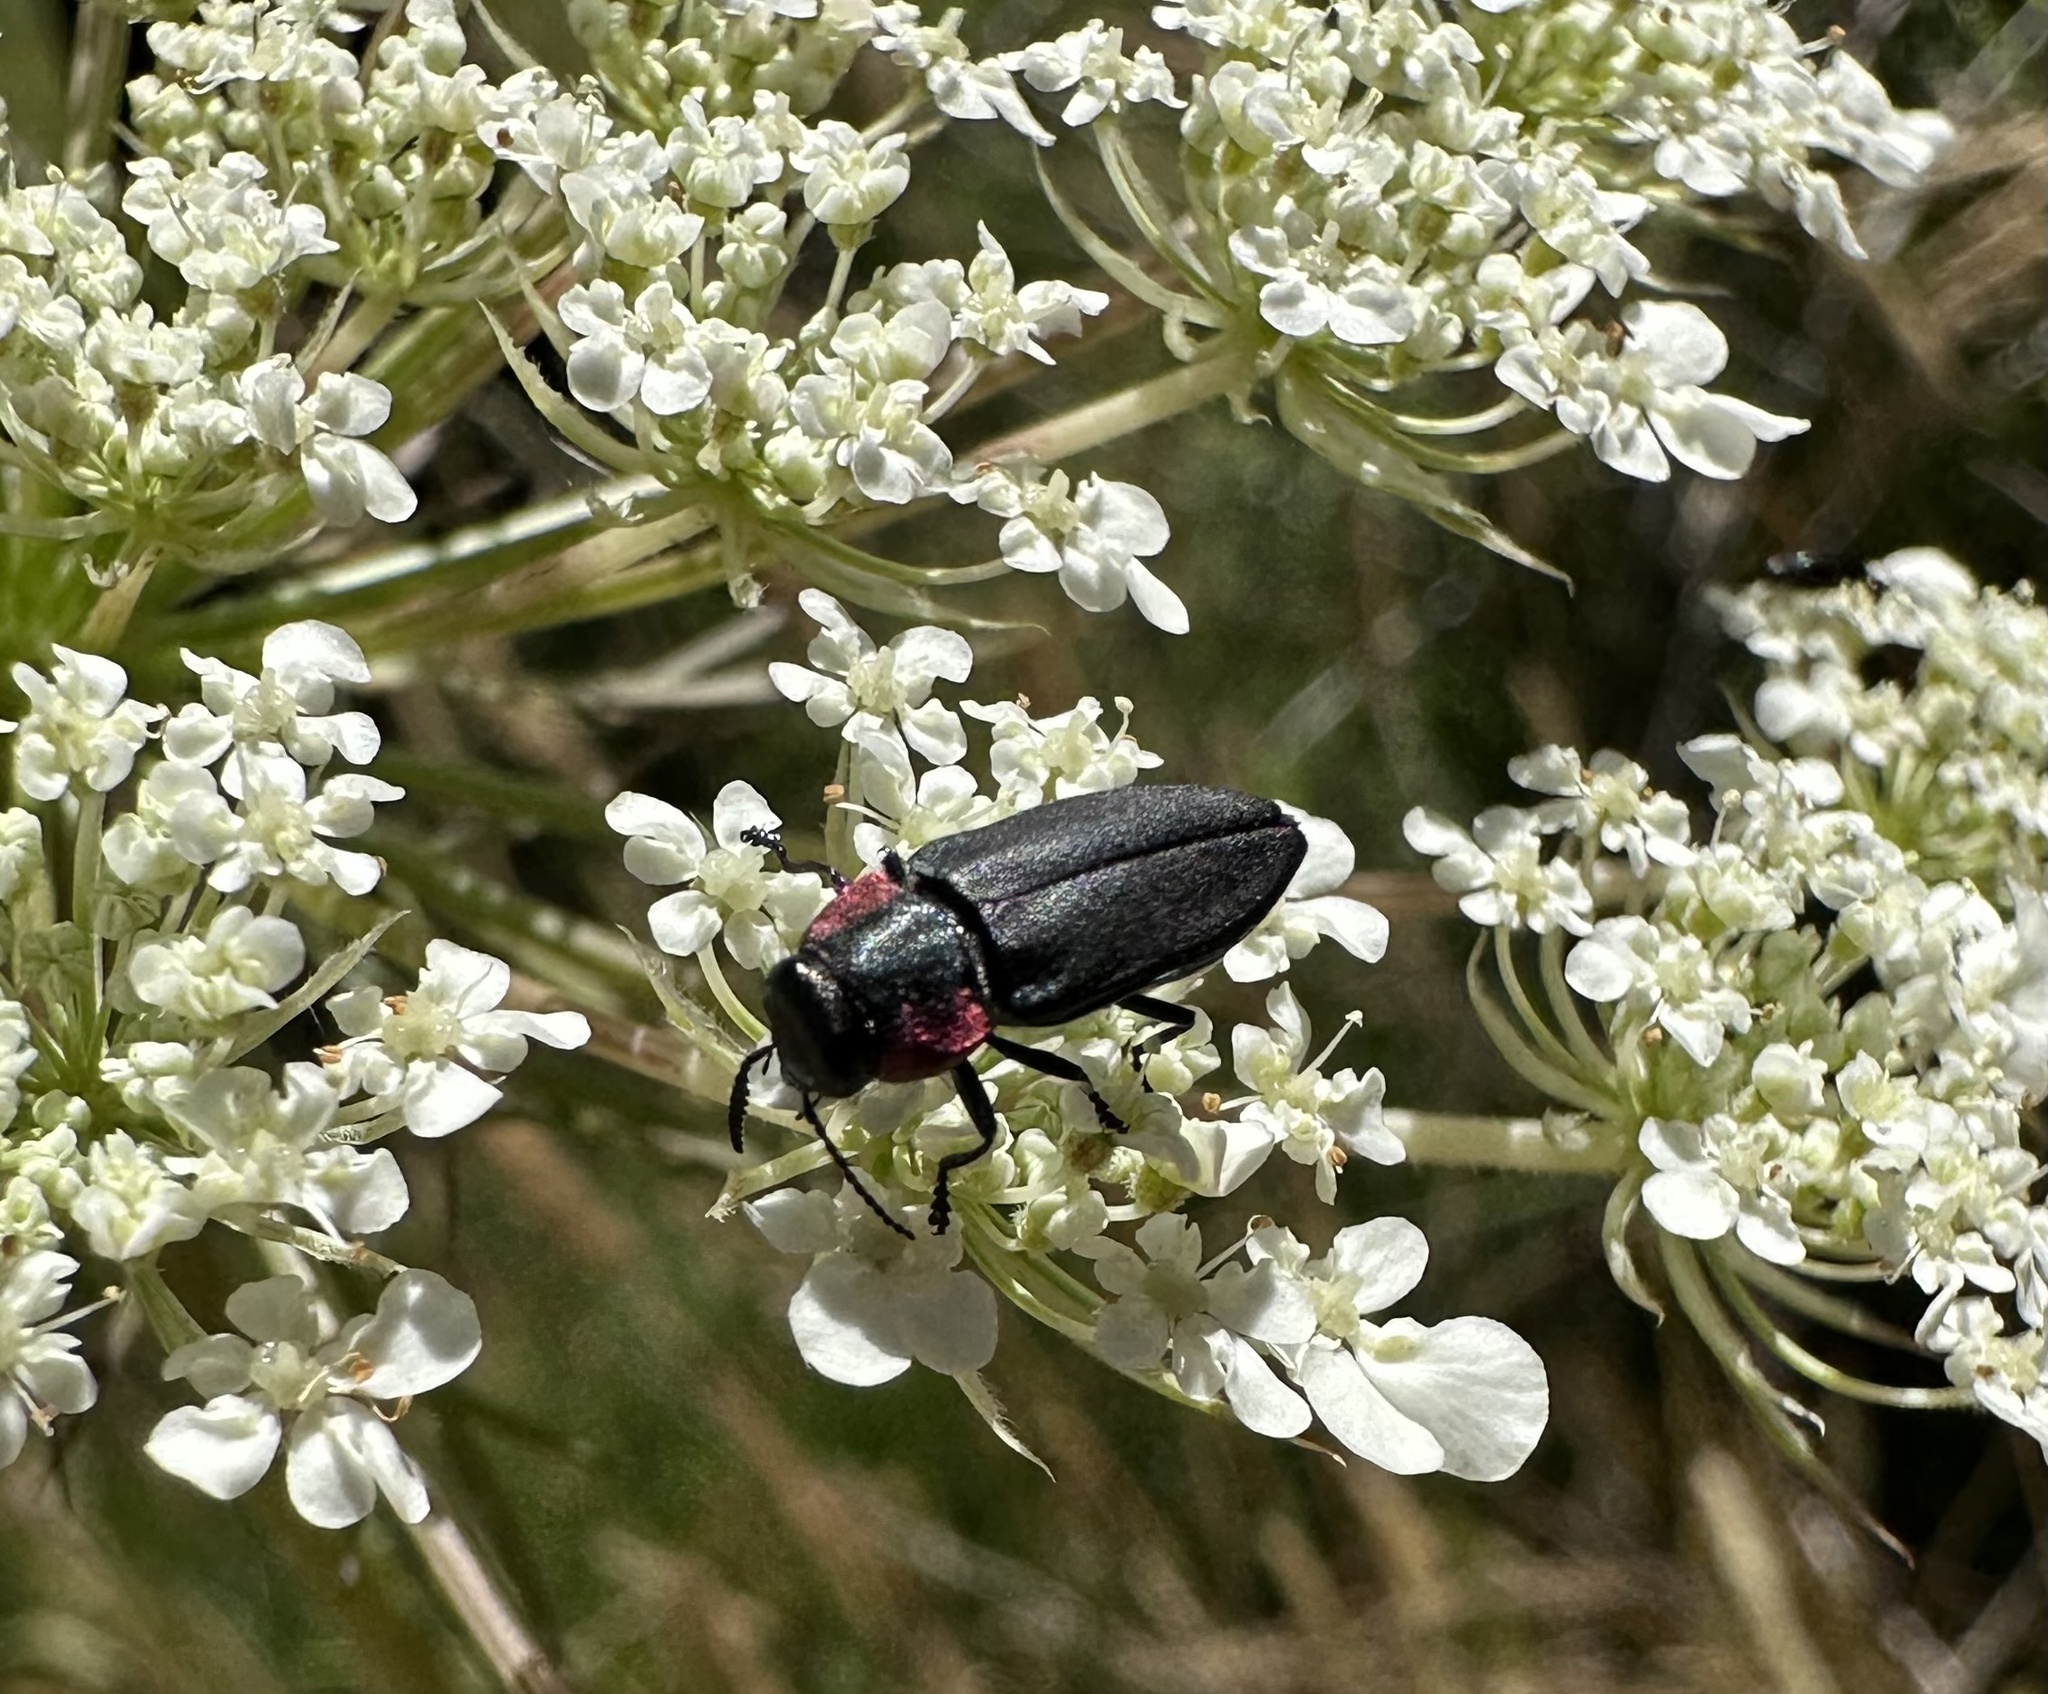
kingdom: Animalia
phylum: Arthropoda
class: Insecta
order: Coleoptera
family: Buprestidae
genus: Romanophora
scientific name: Romanophora verecunda
